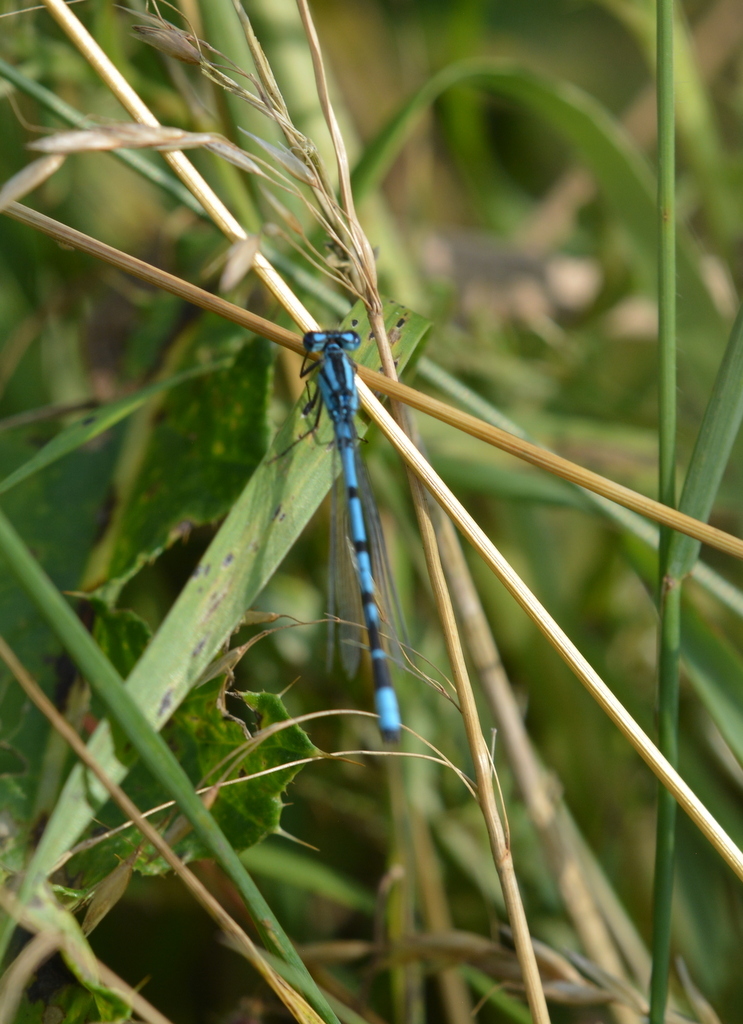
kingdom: Animalia
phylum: Arthropoda
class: Insecta
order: Odonata
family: Coenagrionidae
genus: Enallagma
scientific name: Enallagma cyathigerum
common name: Common blue damselfly
